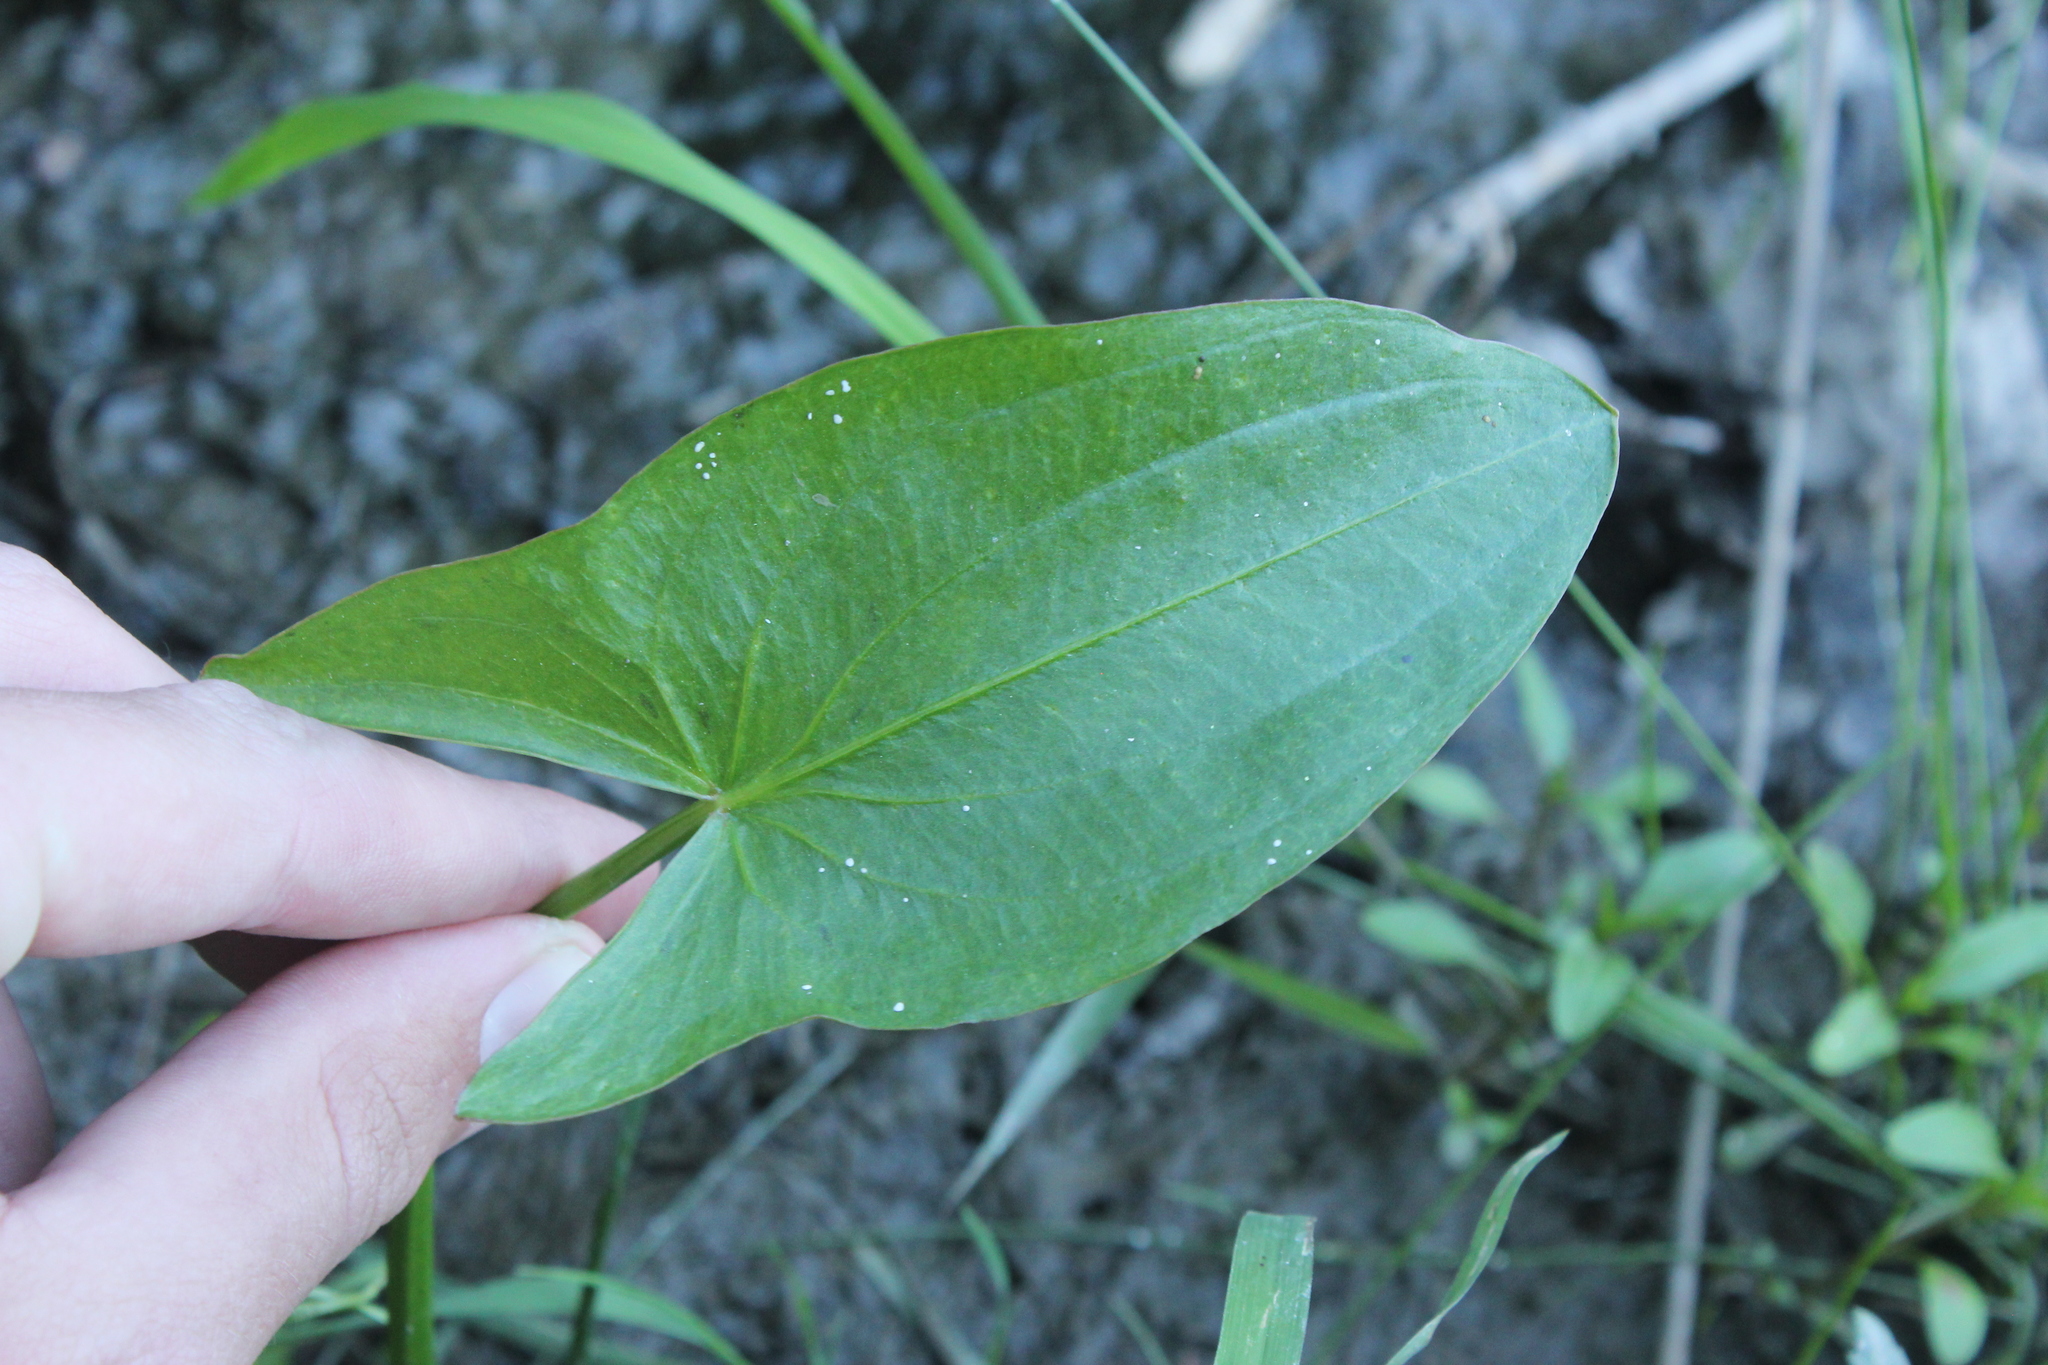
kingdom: Plantae
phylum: Tracheophyta
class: Liliopsida
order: Alismatales
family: Alismataceae
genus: Sagittaria
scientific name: Sagittaria latifolia
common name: Duck-potato
